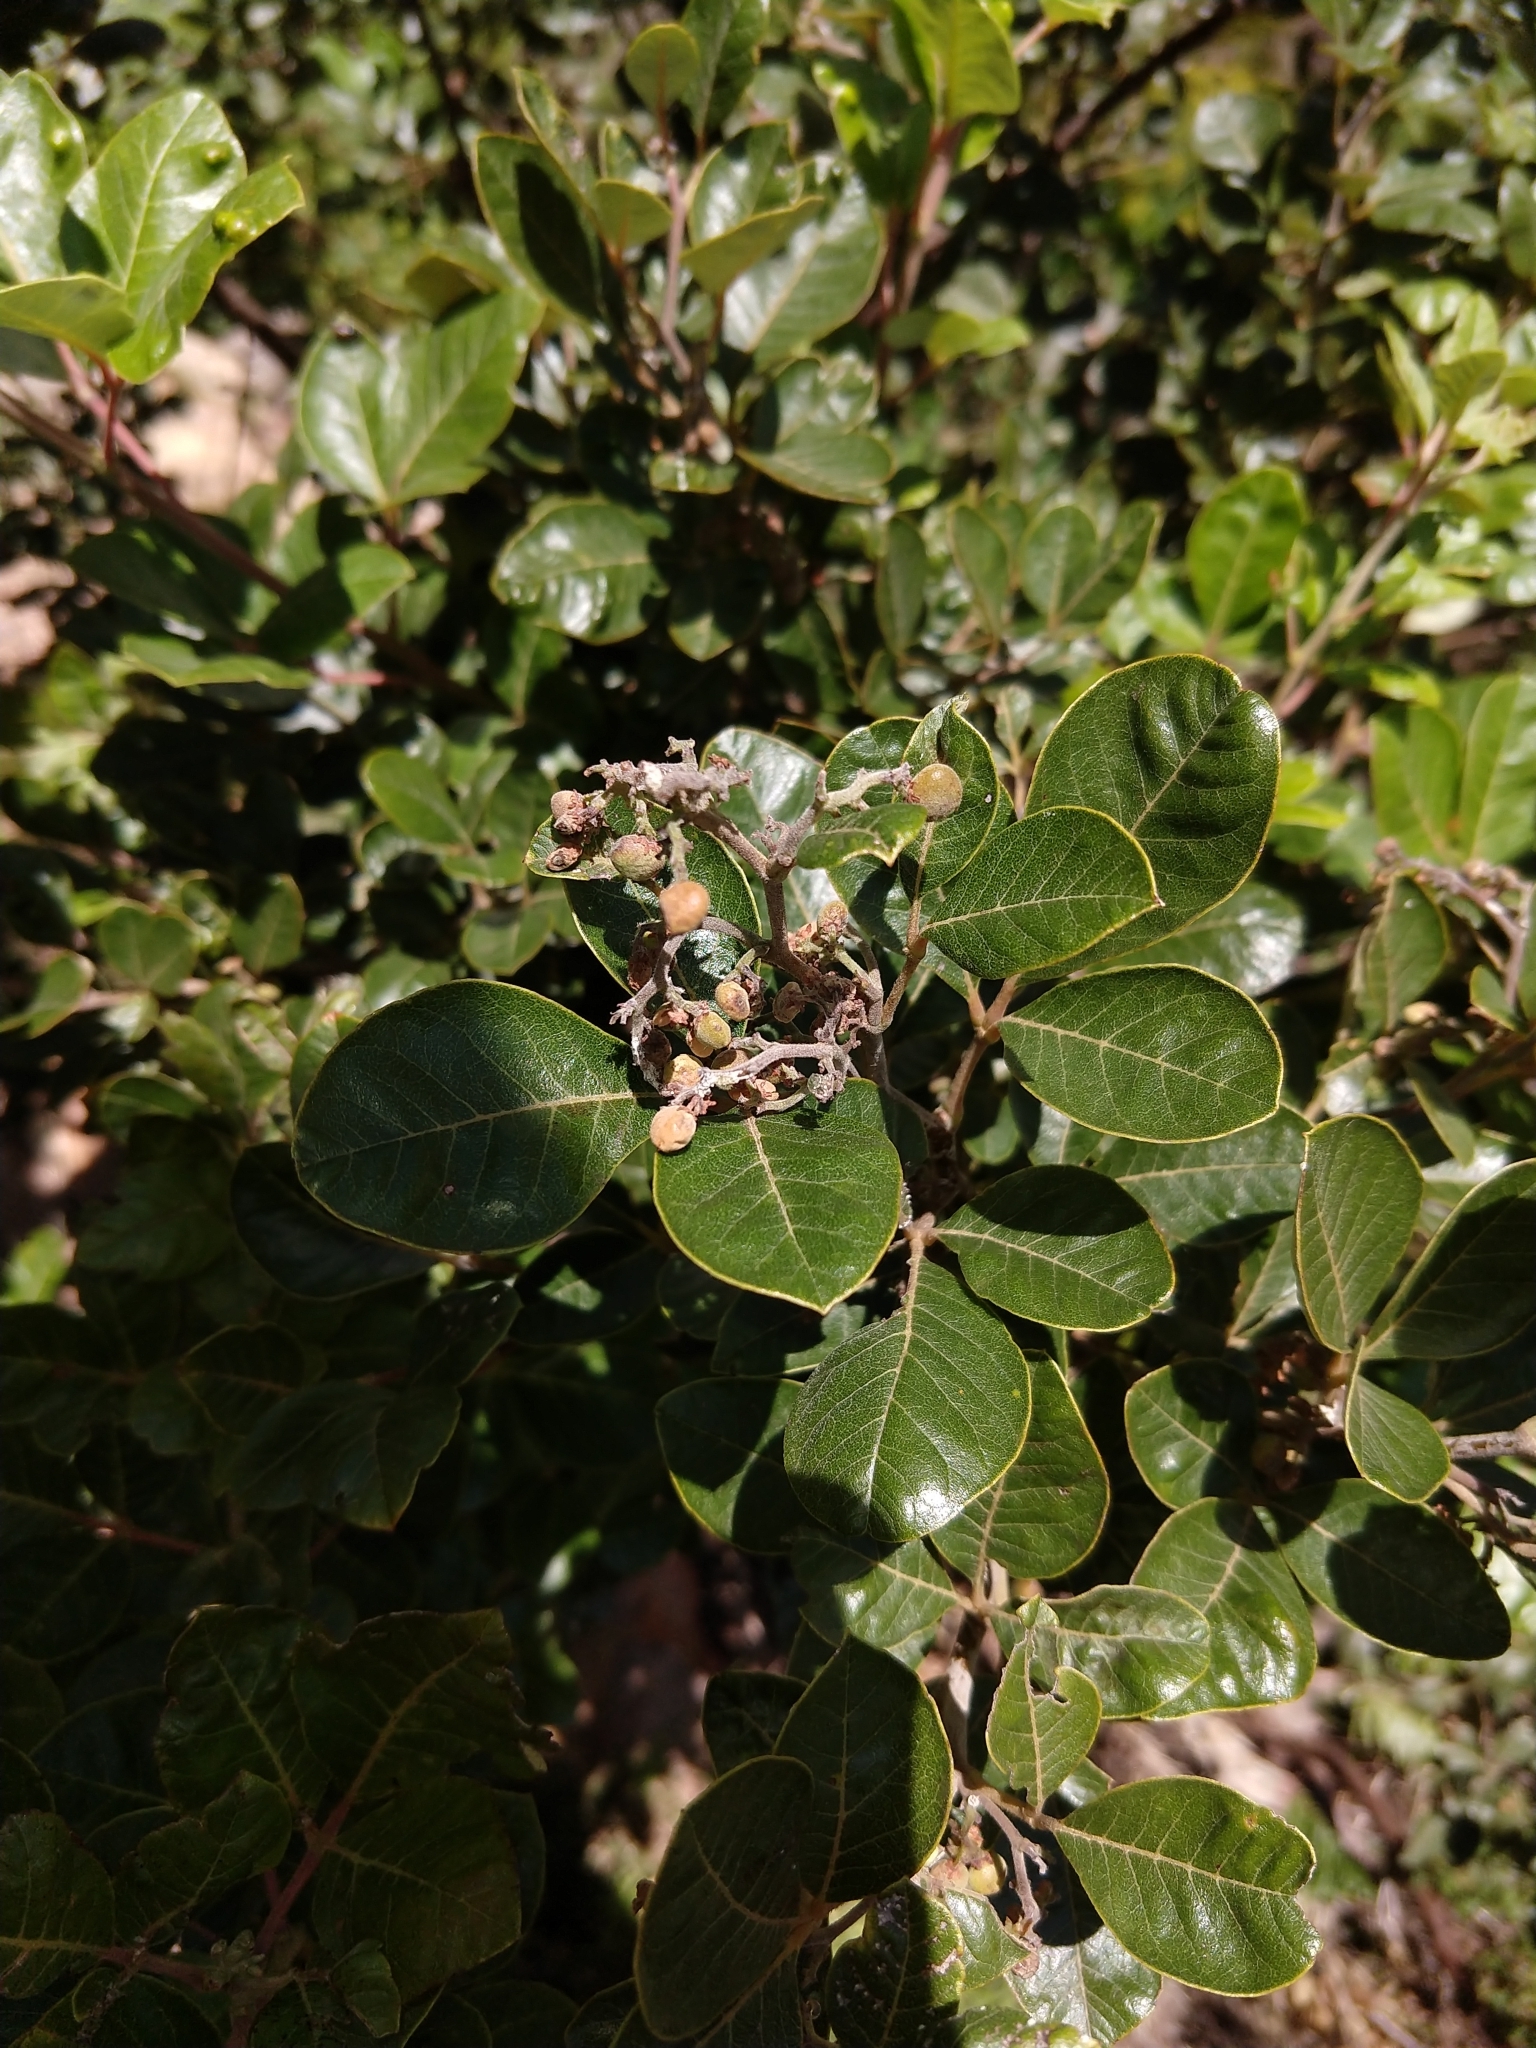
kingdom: Plantae
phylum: Tracheophyta
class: Magnoliopsida
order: Sapindales
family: Anacardiaceae
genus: Searsia
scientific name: Searsia tomentosa
